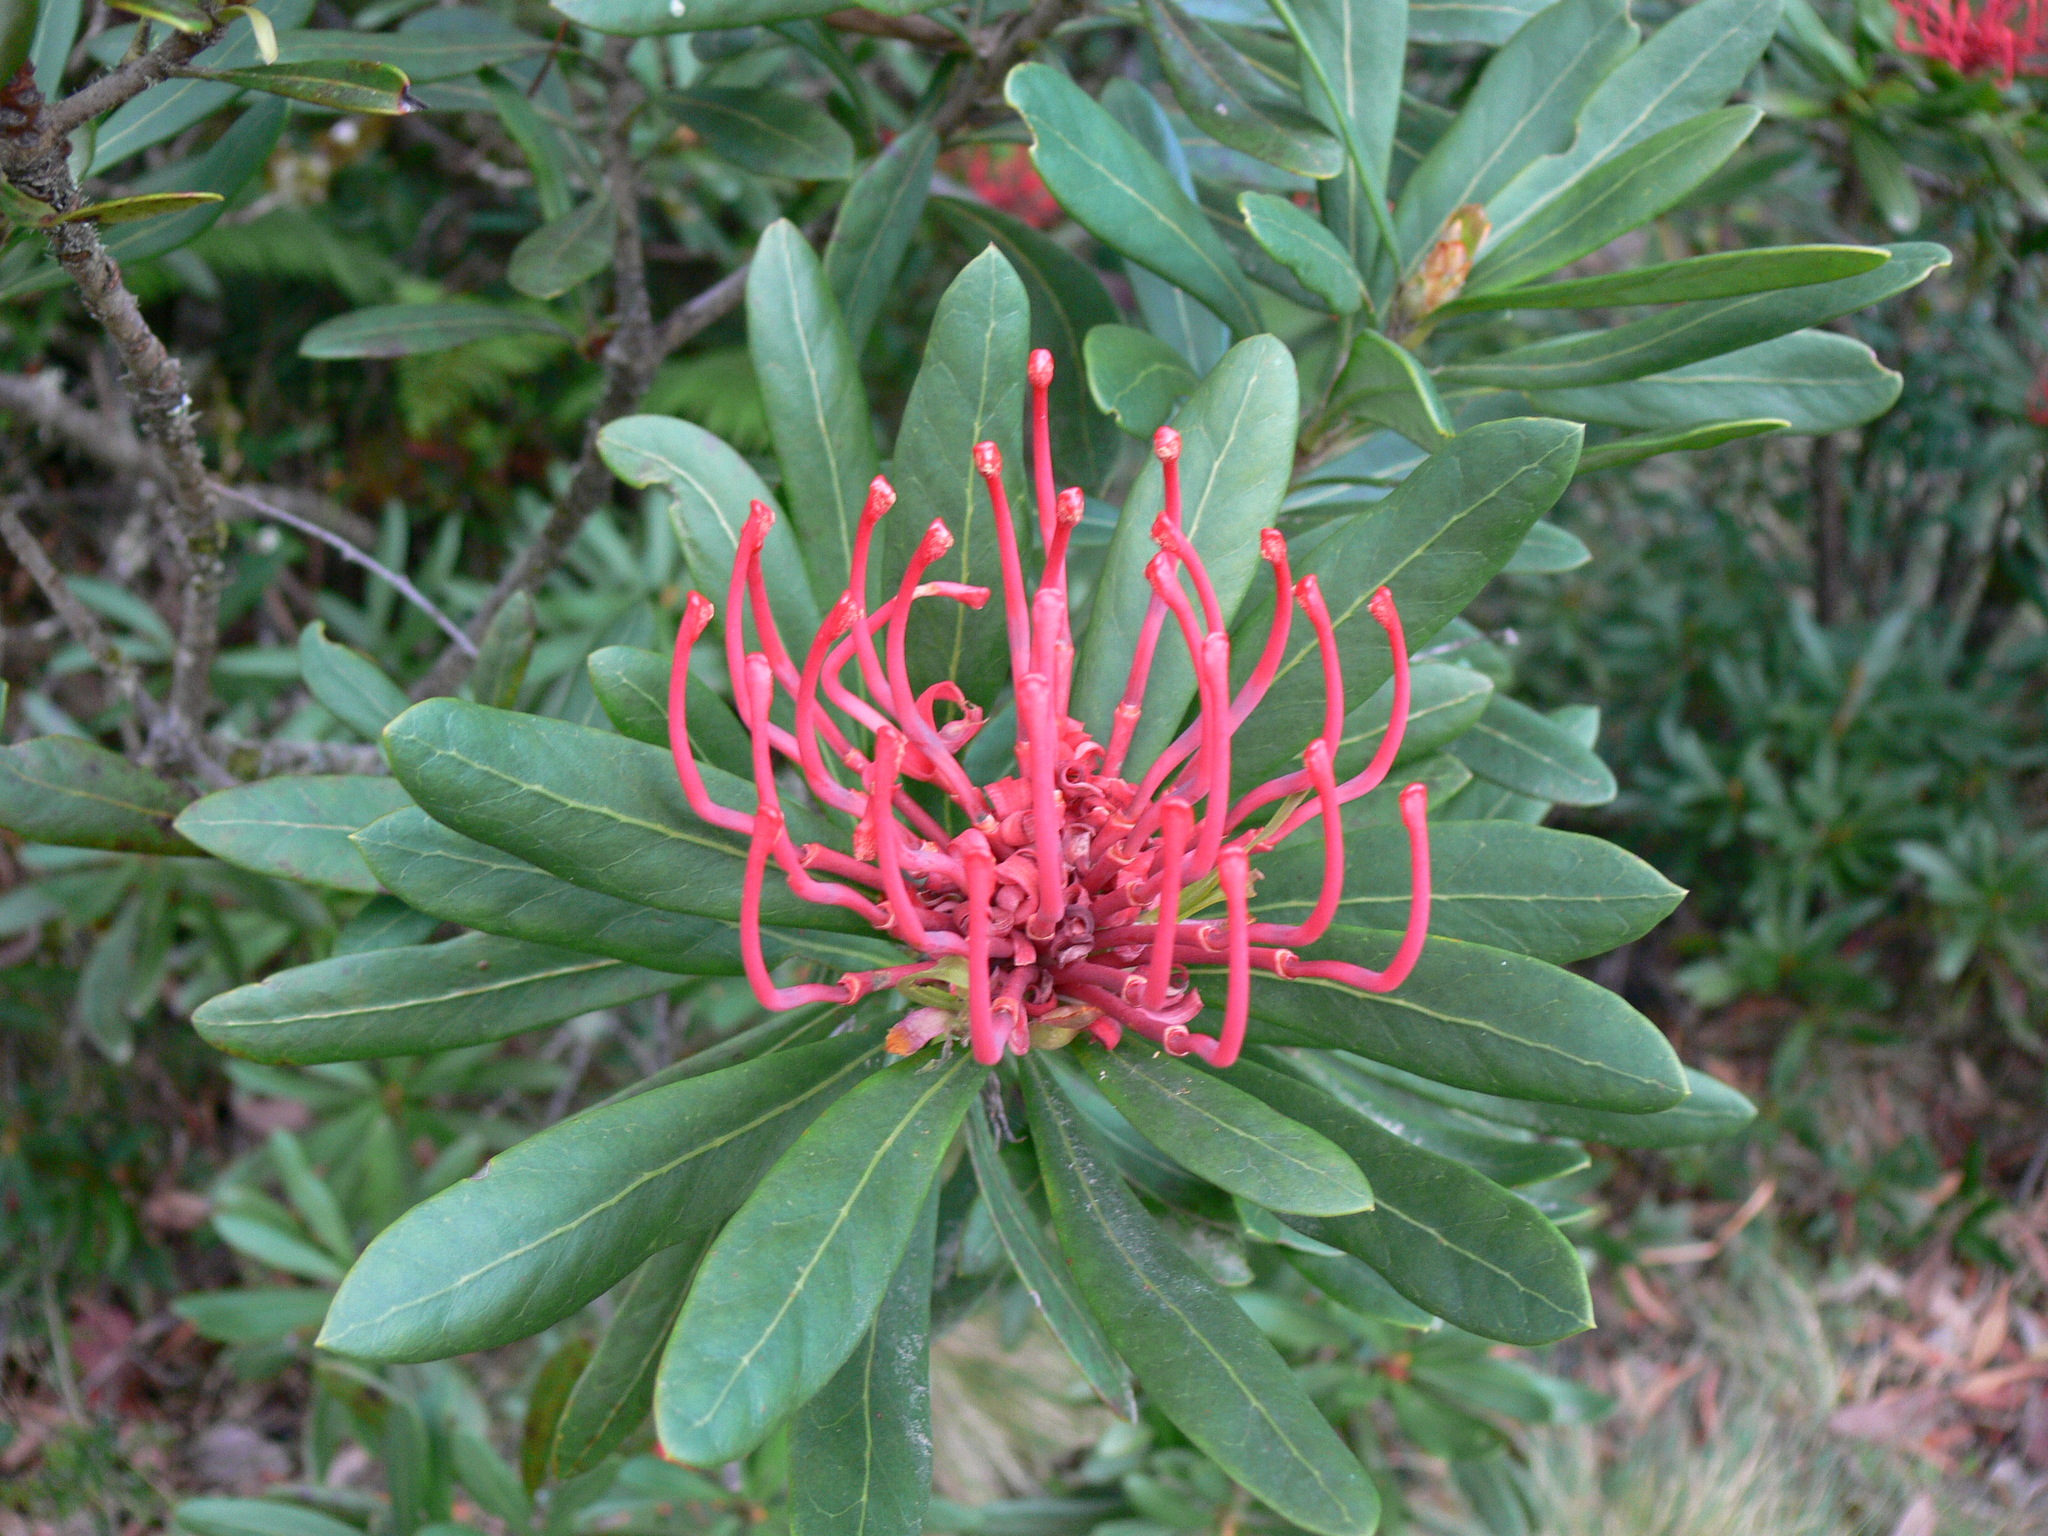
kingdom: Plantae
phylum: Tracheophyta
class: Magnoliopsida
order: Proteales
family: Proteaceae
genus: Telopea
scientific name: Telopea truncata
